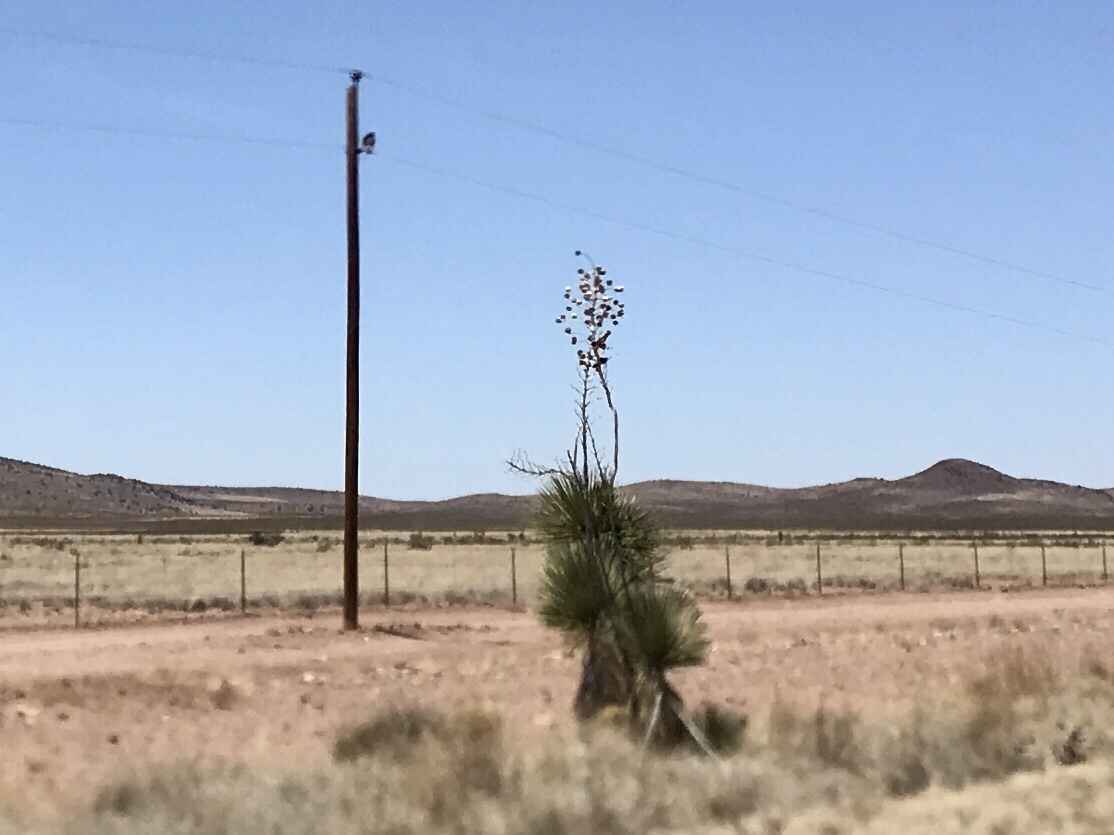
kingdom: Plantae
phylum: Tracheophyta
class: Liliopsida
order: Asparagales
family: Asparagaceae
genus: Yucca
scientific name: Yucca elata
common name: Palmella
